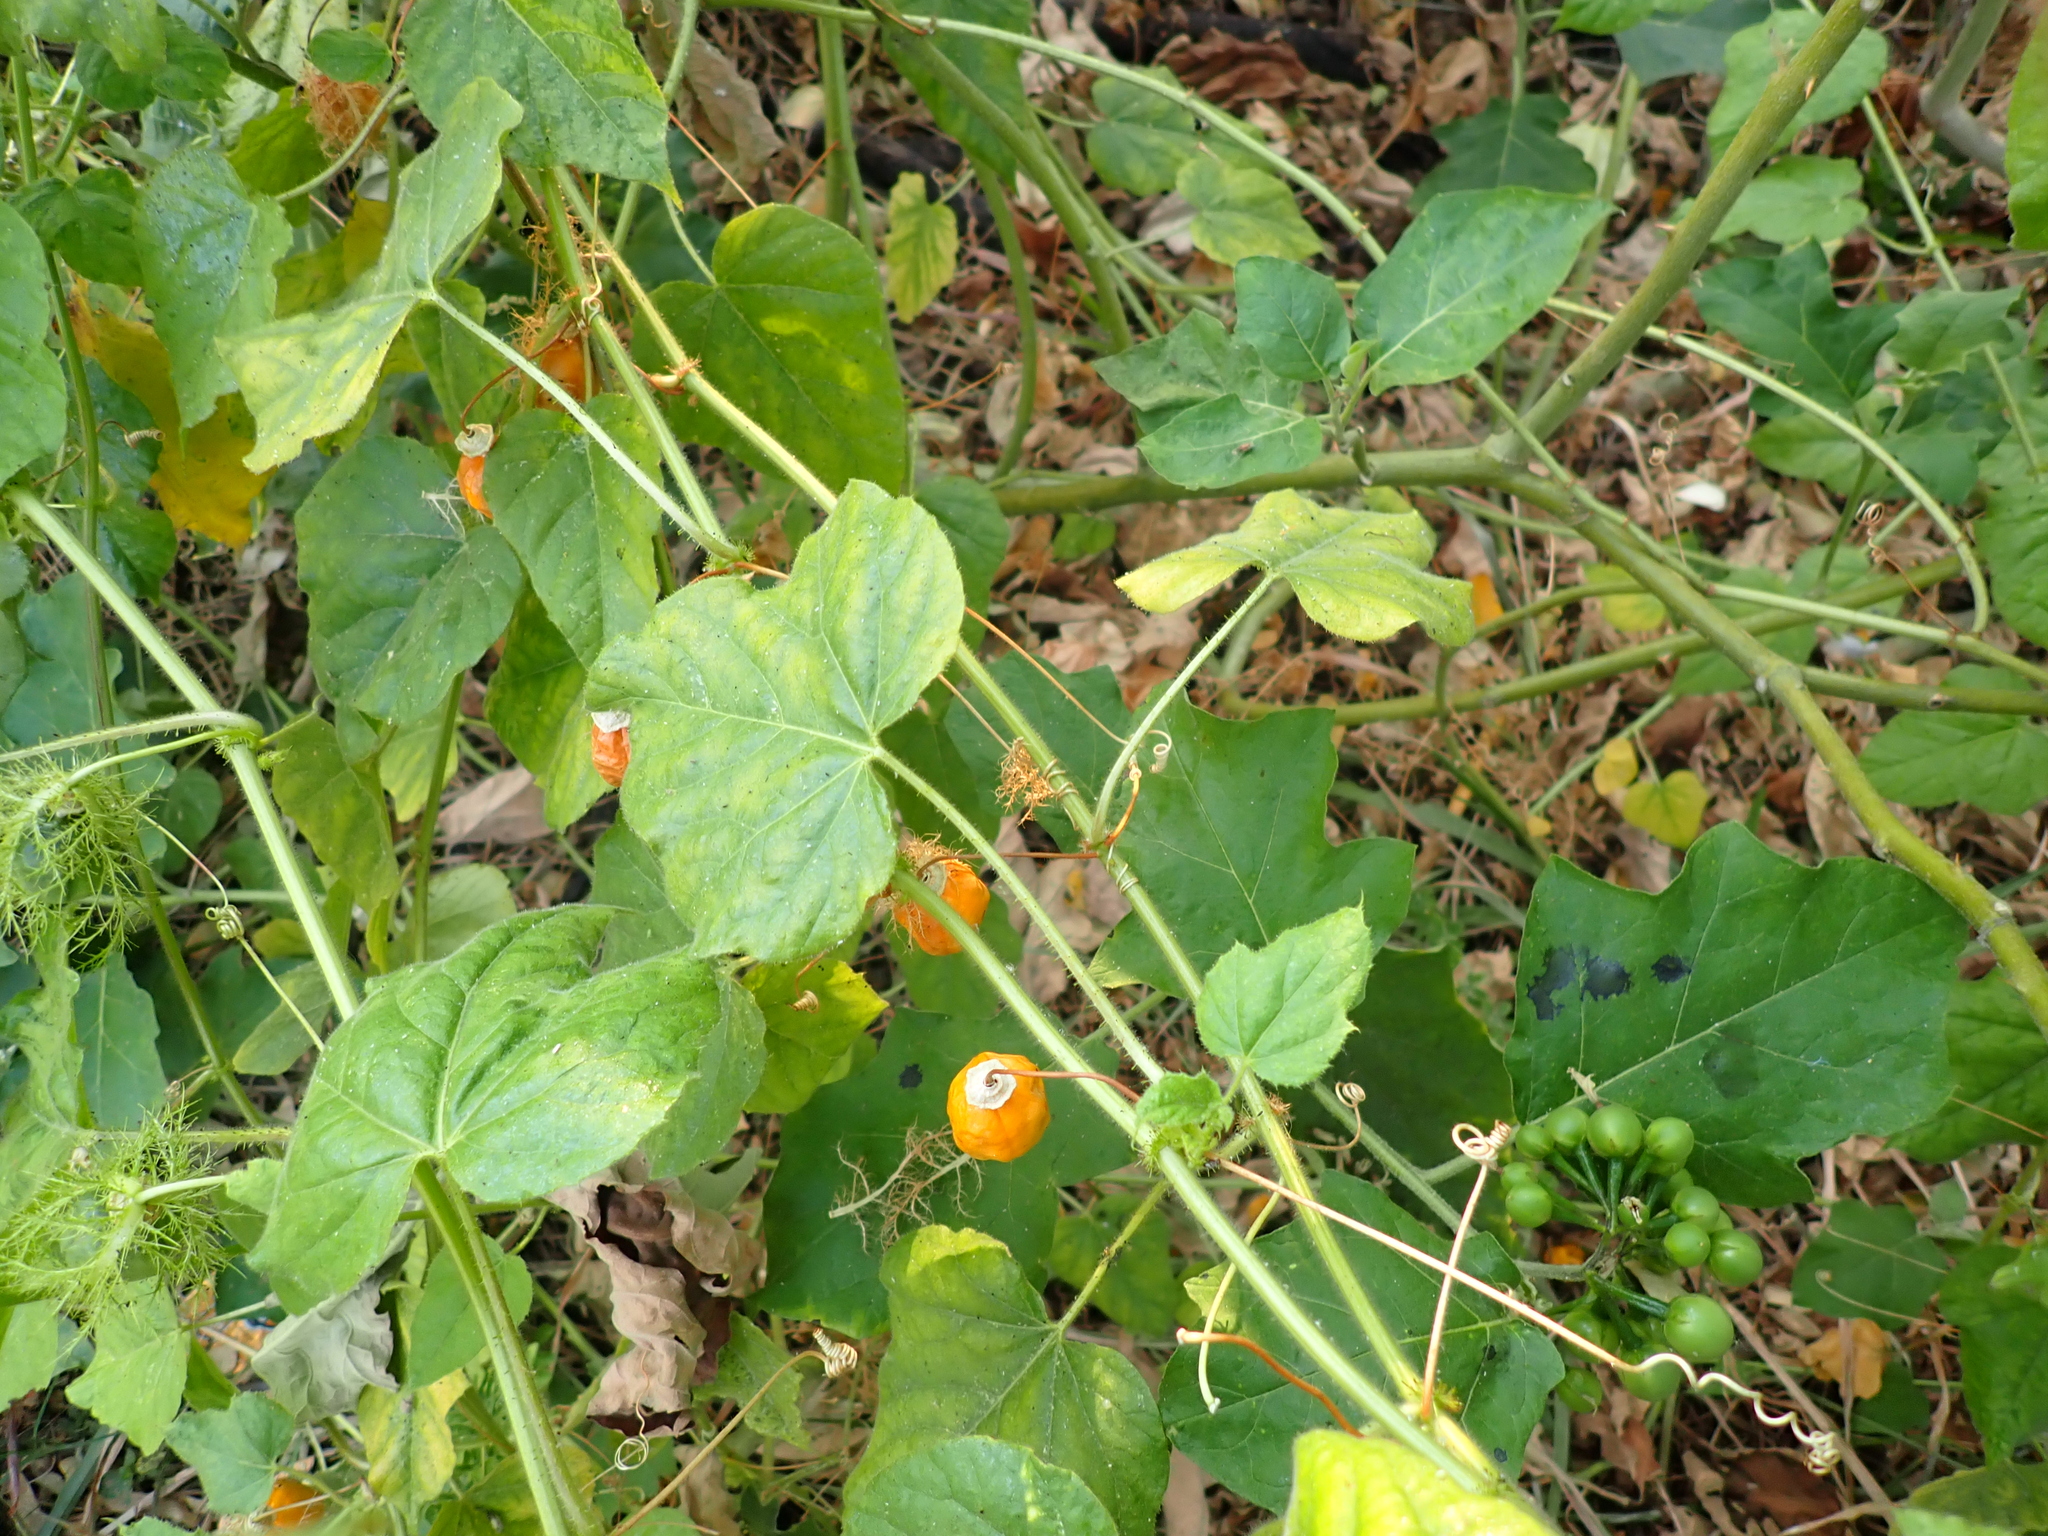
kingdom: Plantae
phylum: Tracheophyta
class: Magnoliopsida
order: Malpighiales
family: Passifloraceae
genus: Passiflora
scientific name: Passiflora vesicaria
